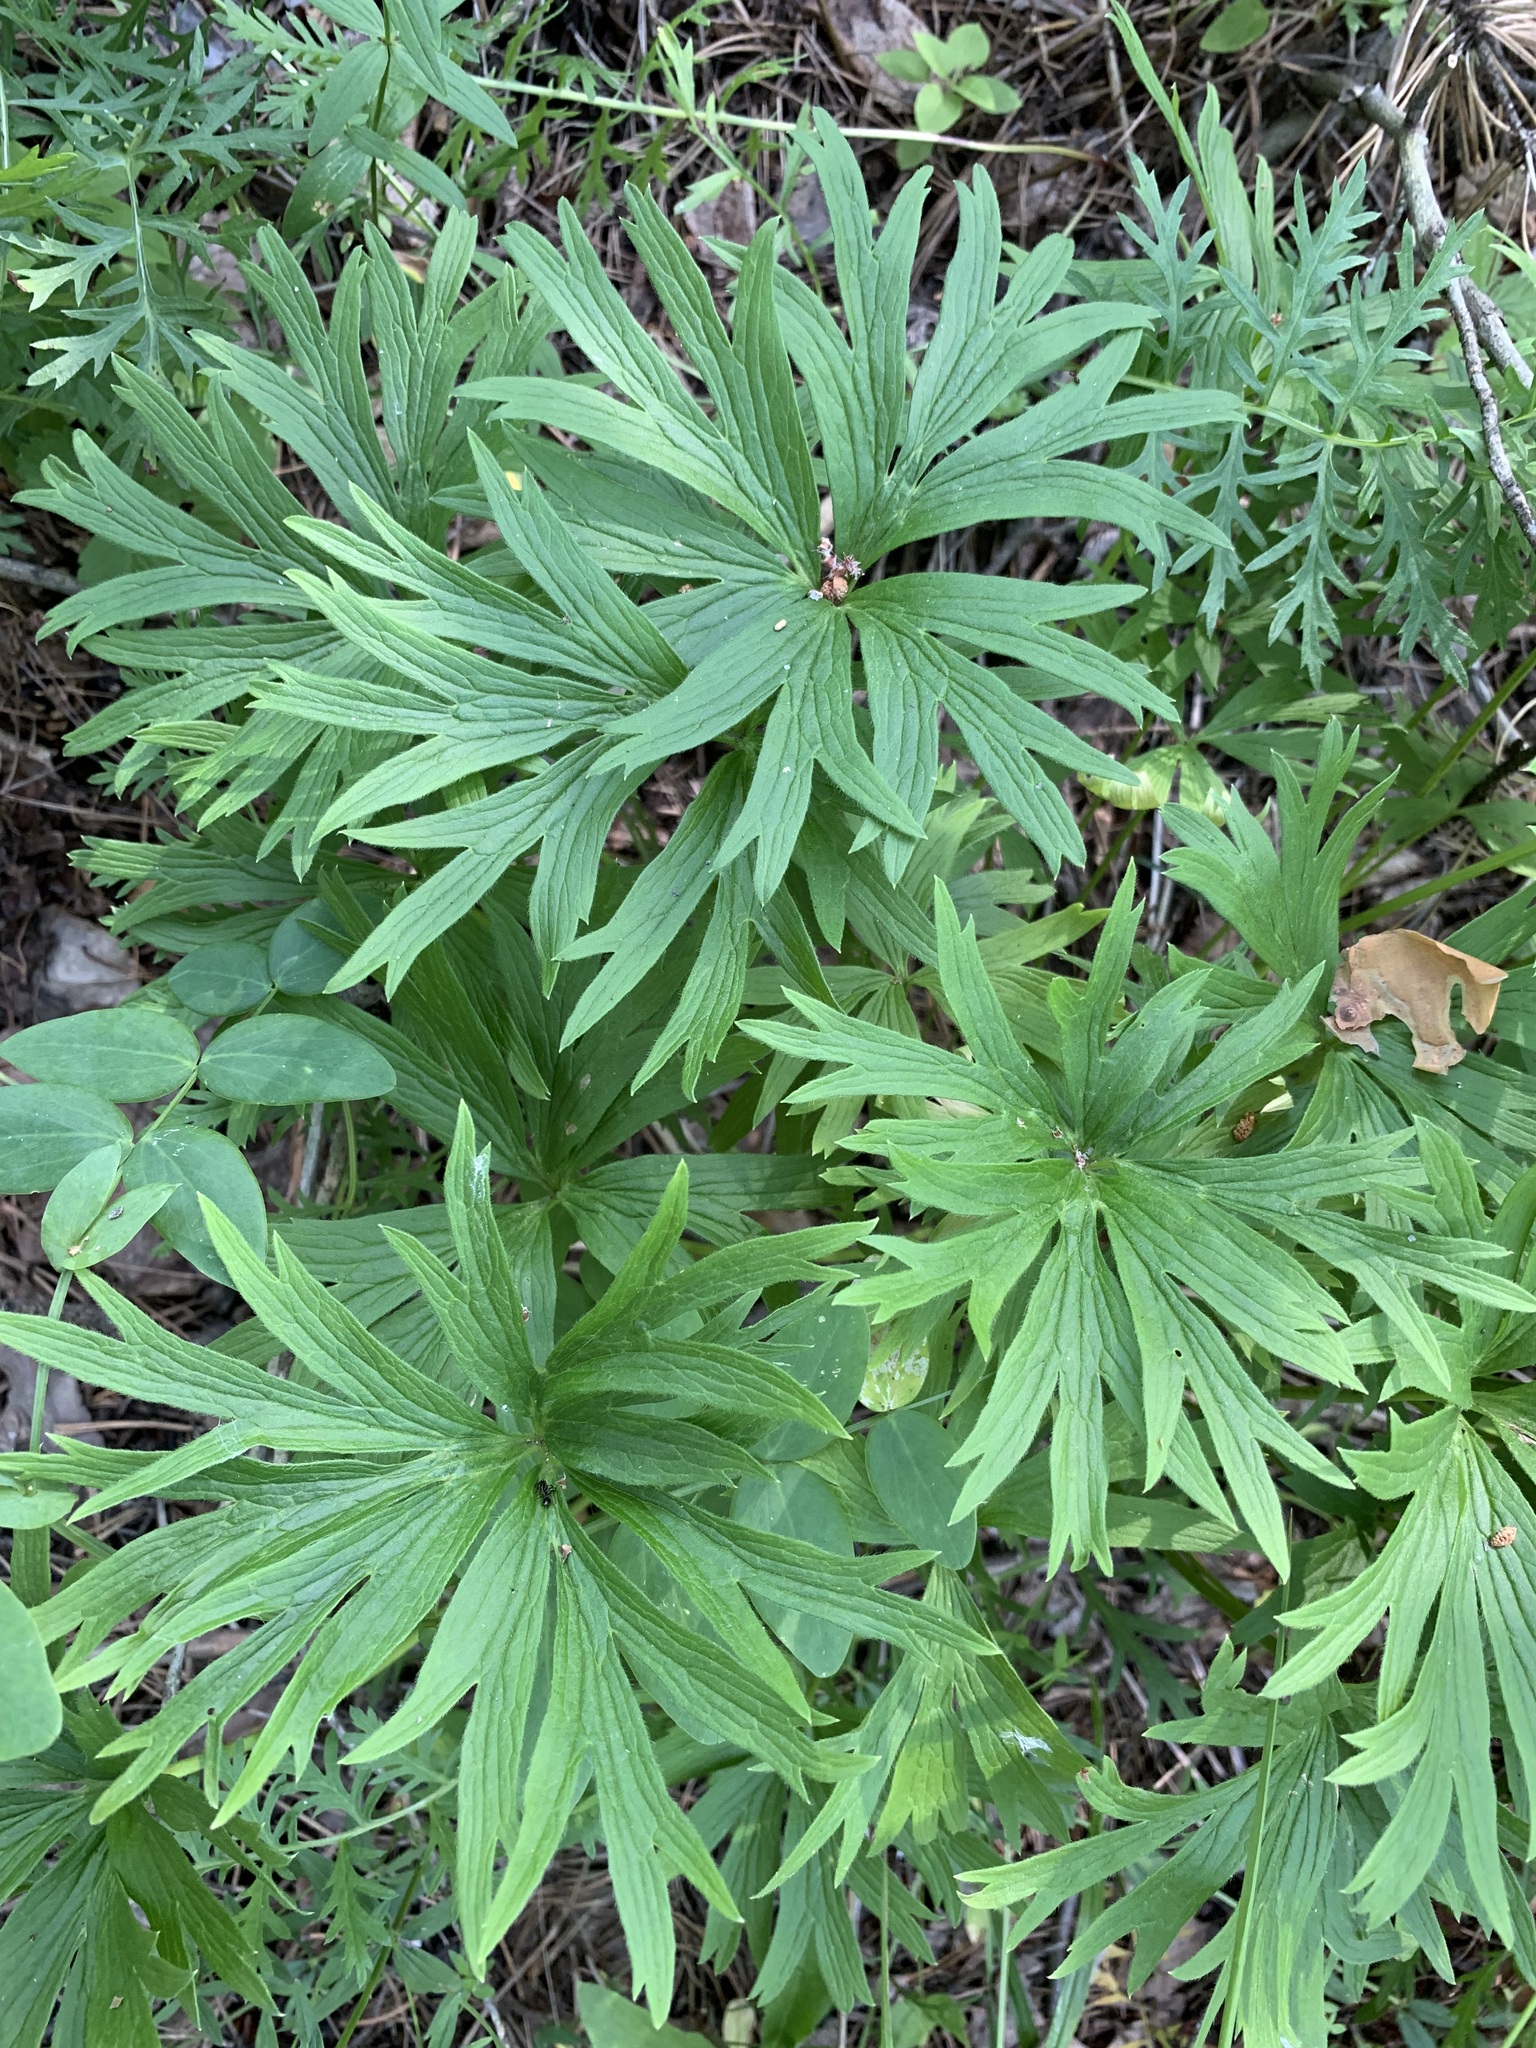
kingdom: Plantae
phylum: Tracheophyta
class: Magnoliopsida
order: Ranunculales
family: Ranunculaceae
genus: Pulsatilla
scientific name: Pulsatilla patens
